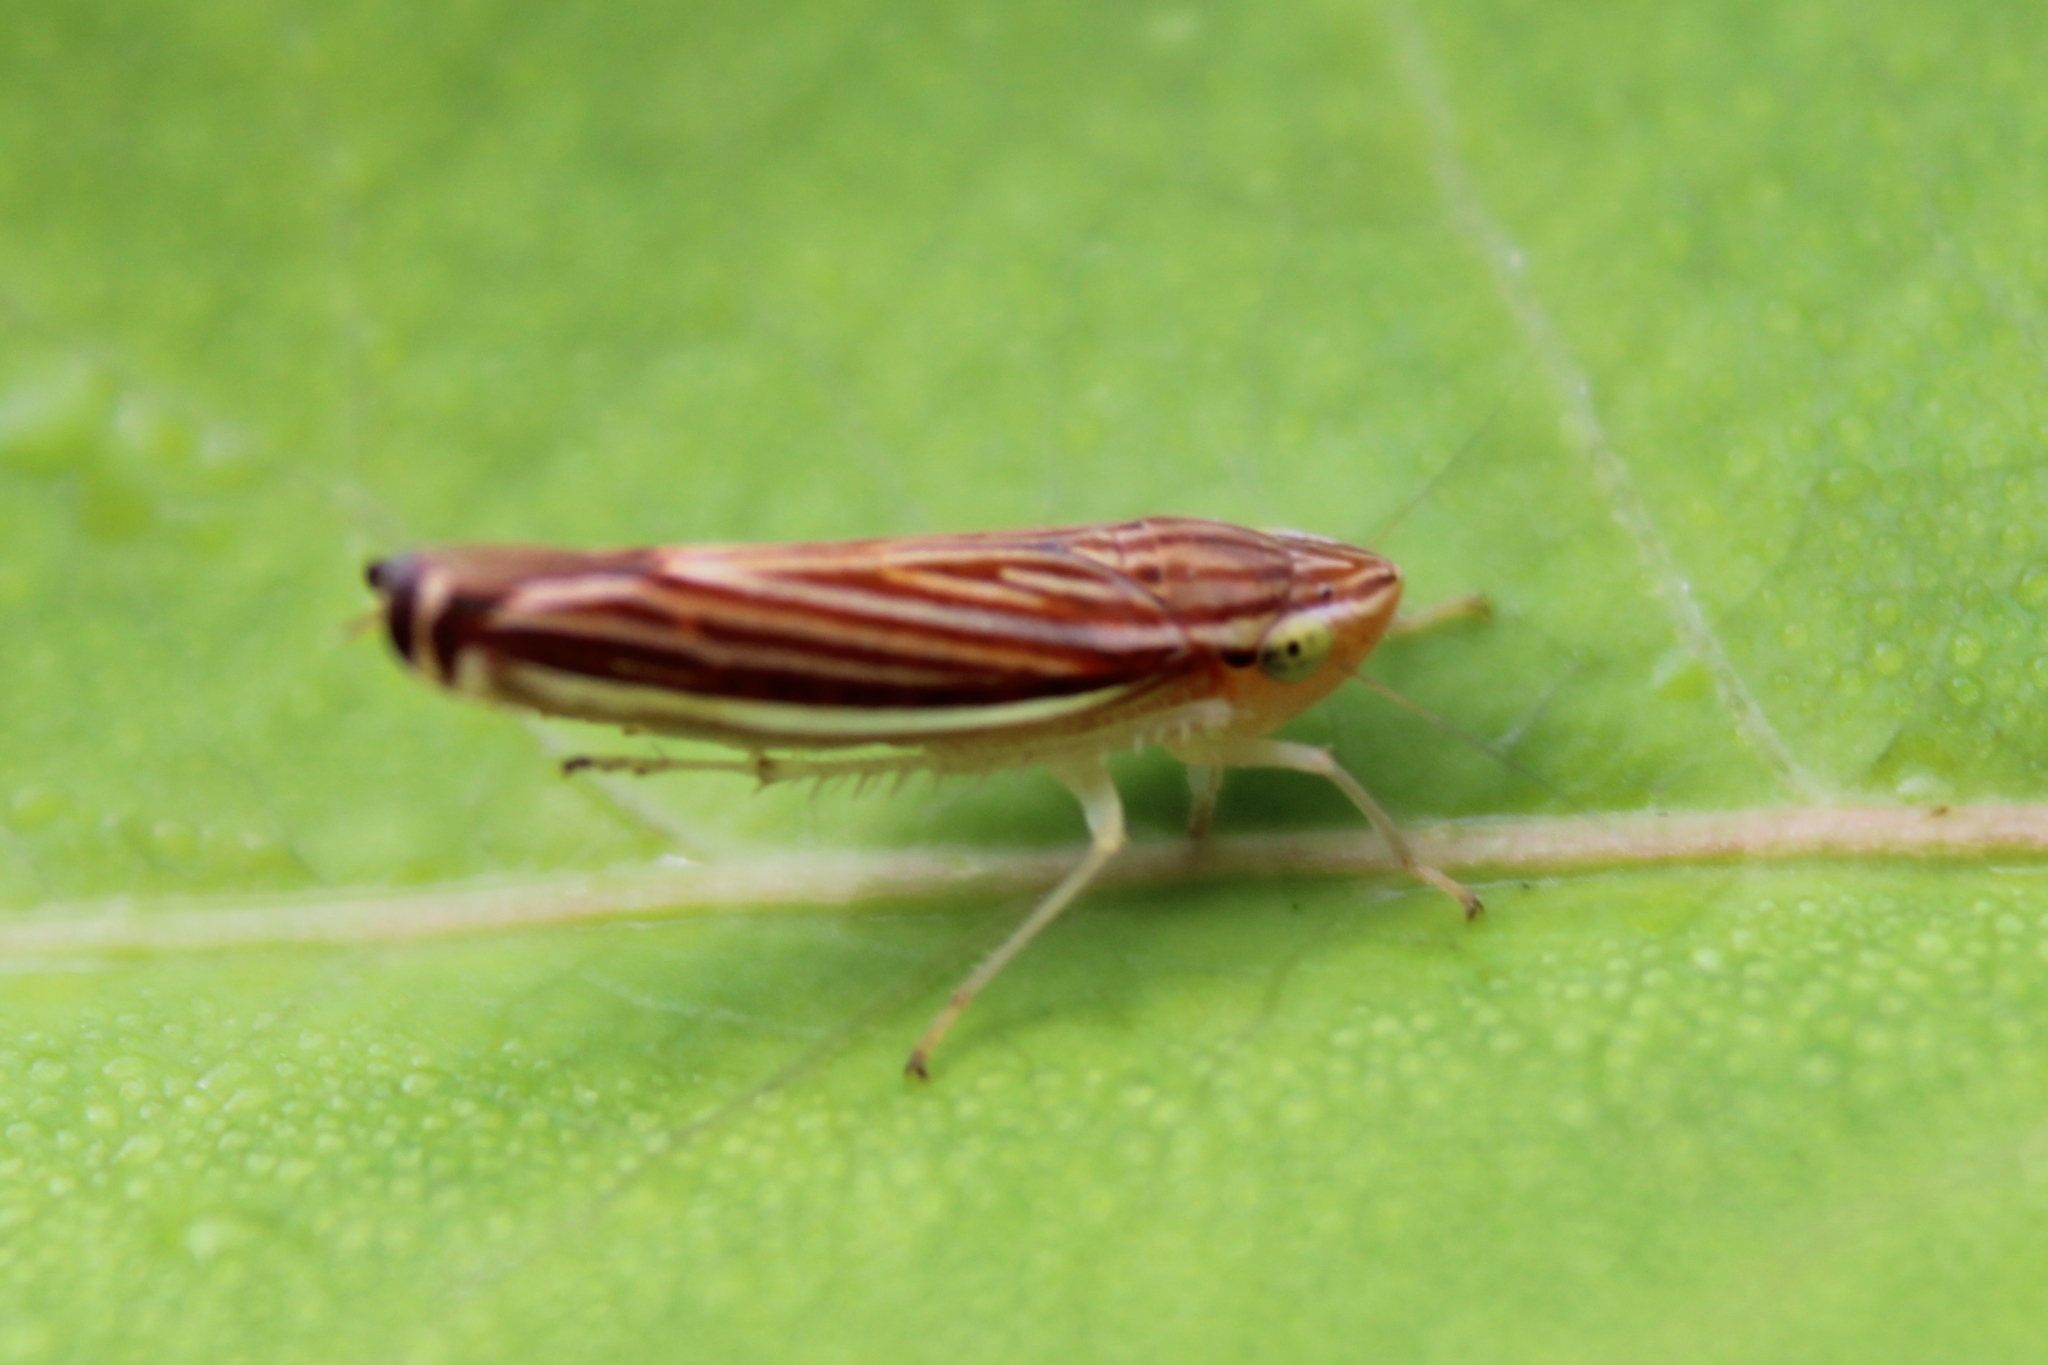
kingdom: Animalia
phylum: Arthropoda
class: Insecta
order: Hemiptera
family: Cicadellidae
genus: Sibovia
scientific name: Sibovia occatoria
